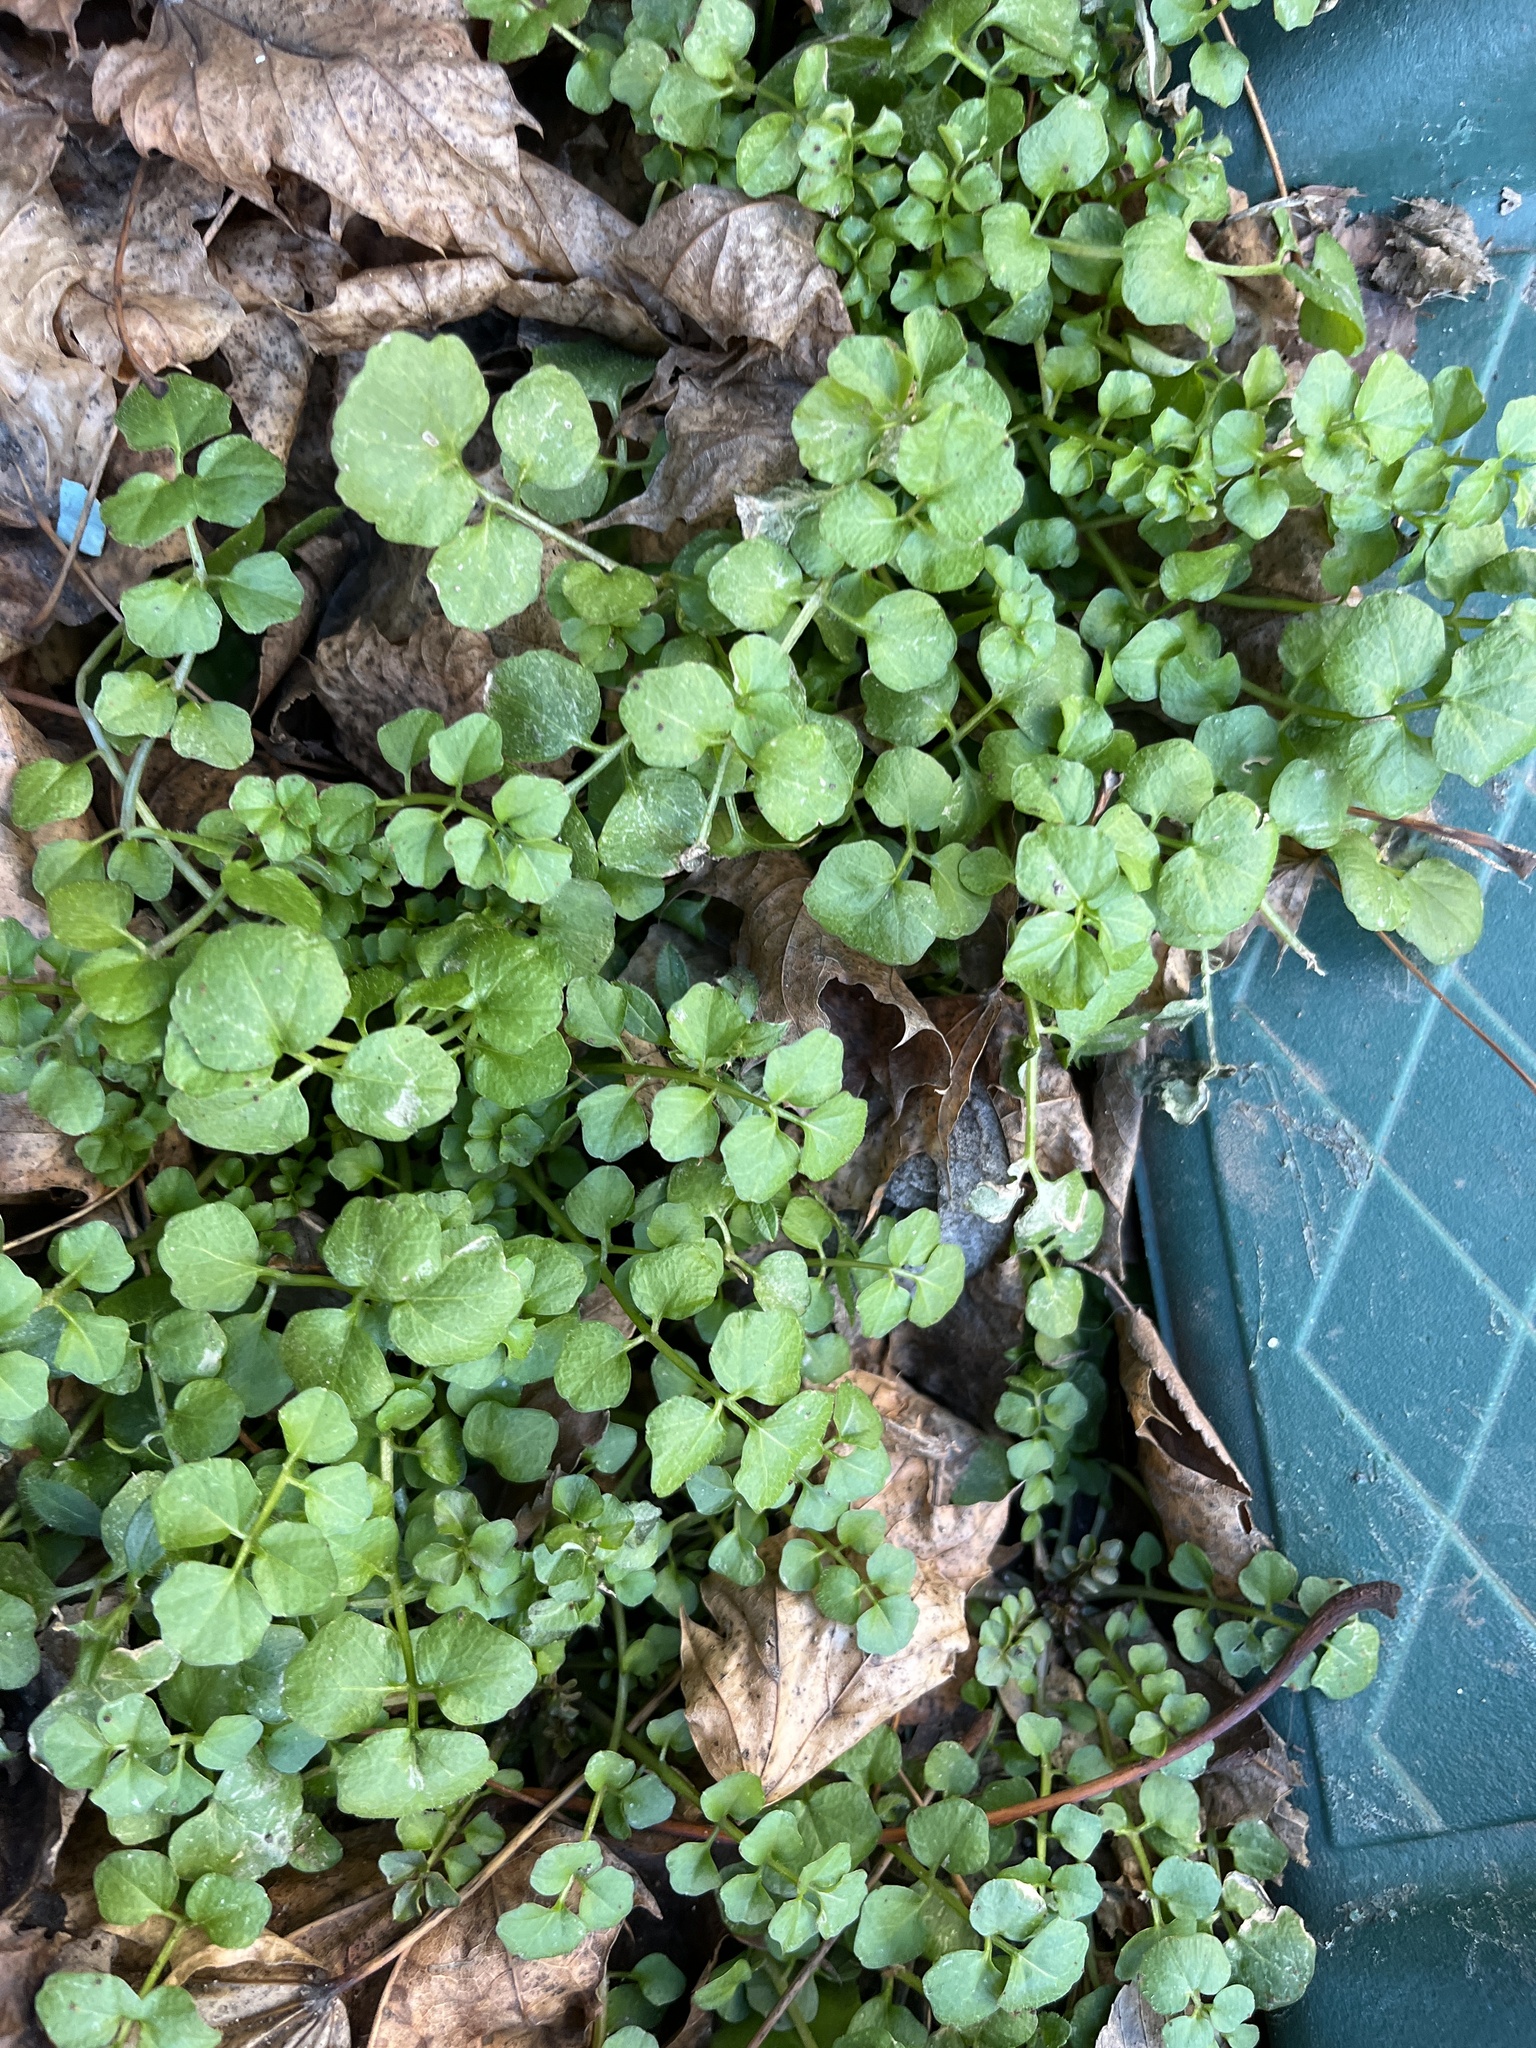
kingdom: Plantae
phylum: Tracheophyta
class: Magnoliopsida
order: Brassicales
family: Brassicaceae
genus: Cardamine
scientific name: Cardamine hirsuta
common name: Hairy bittercress
